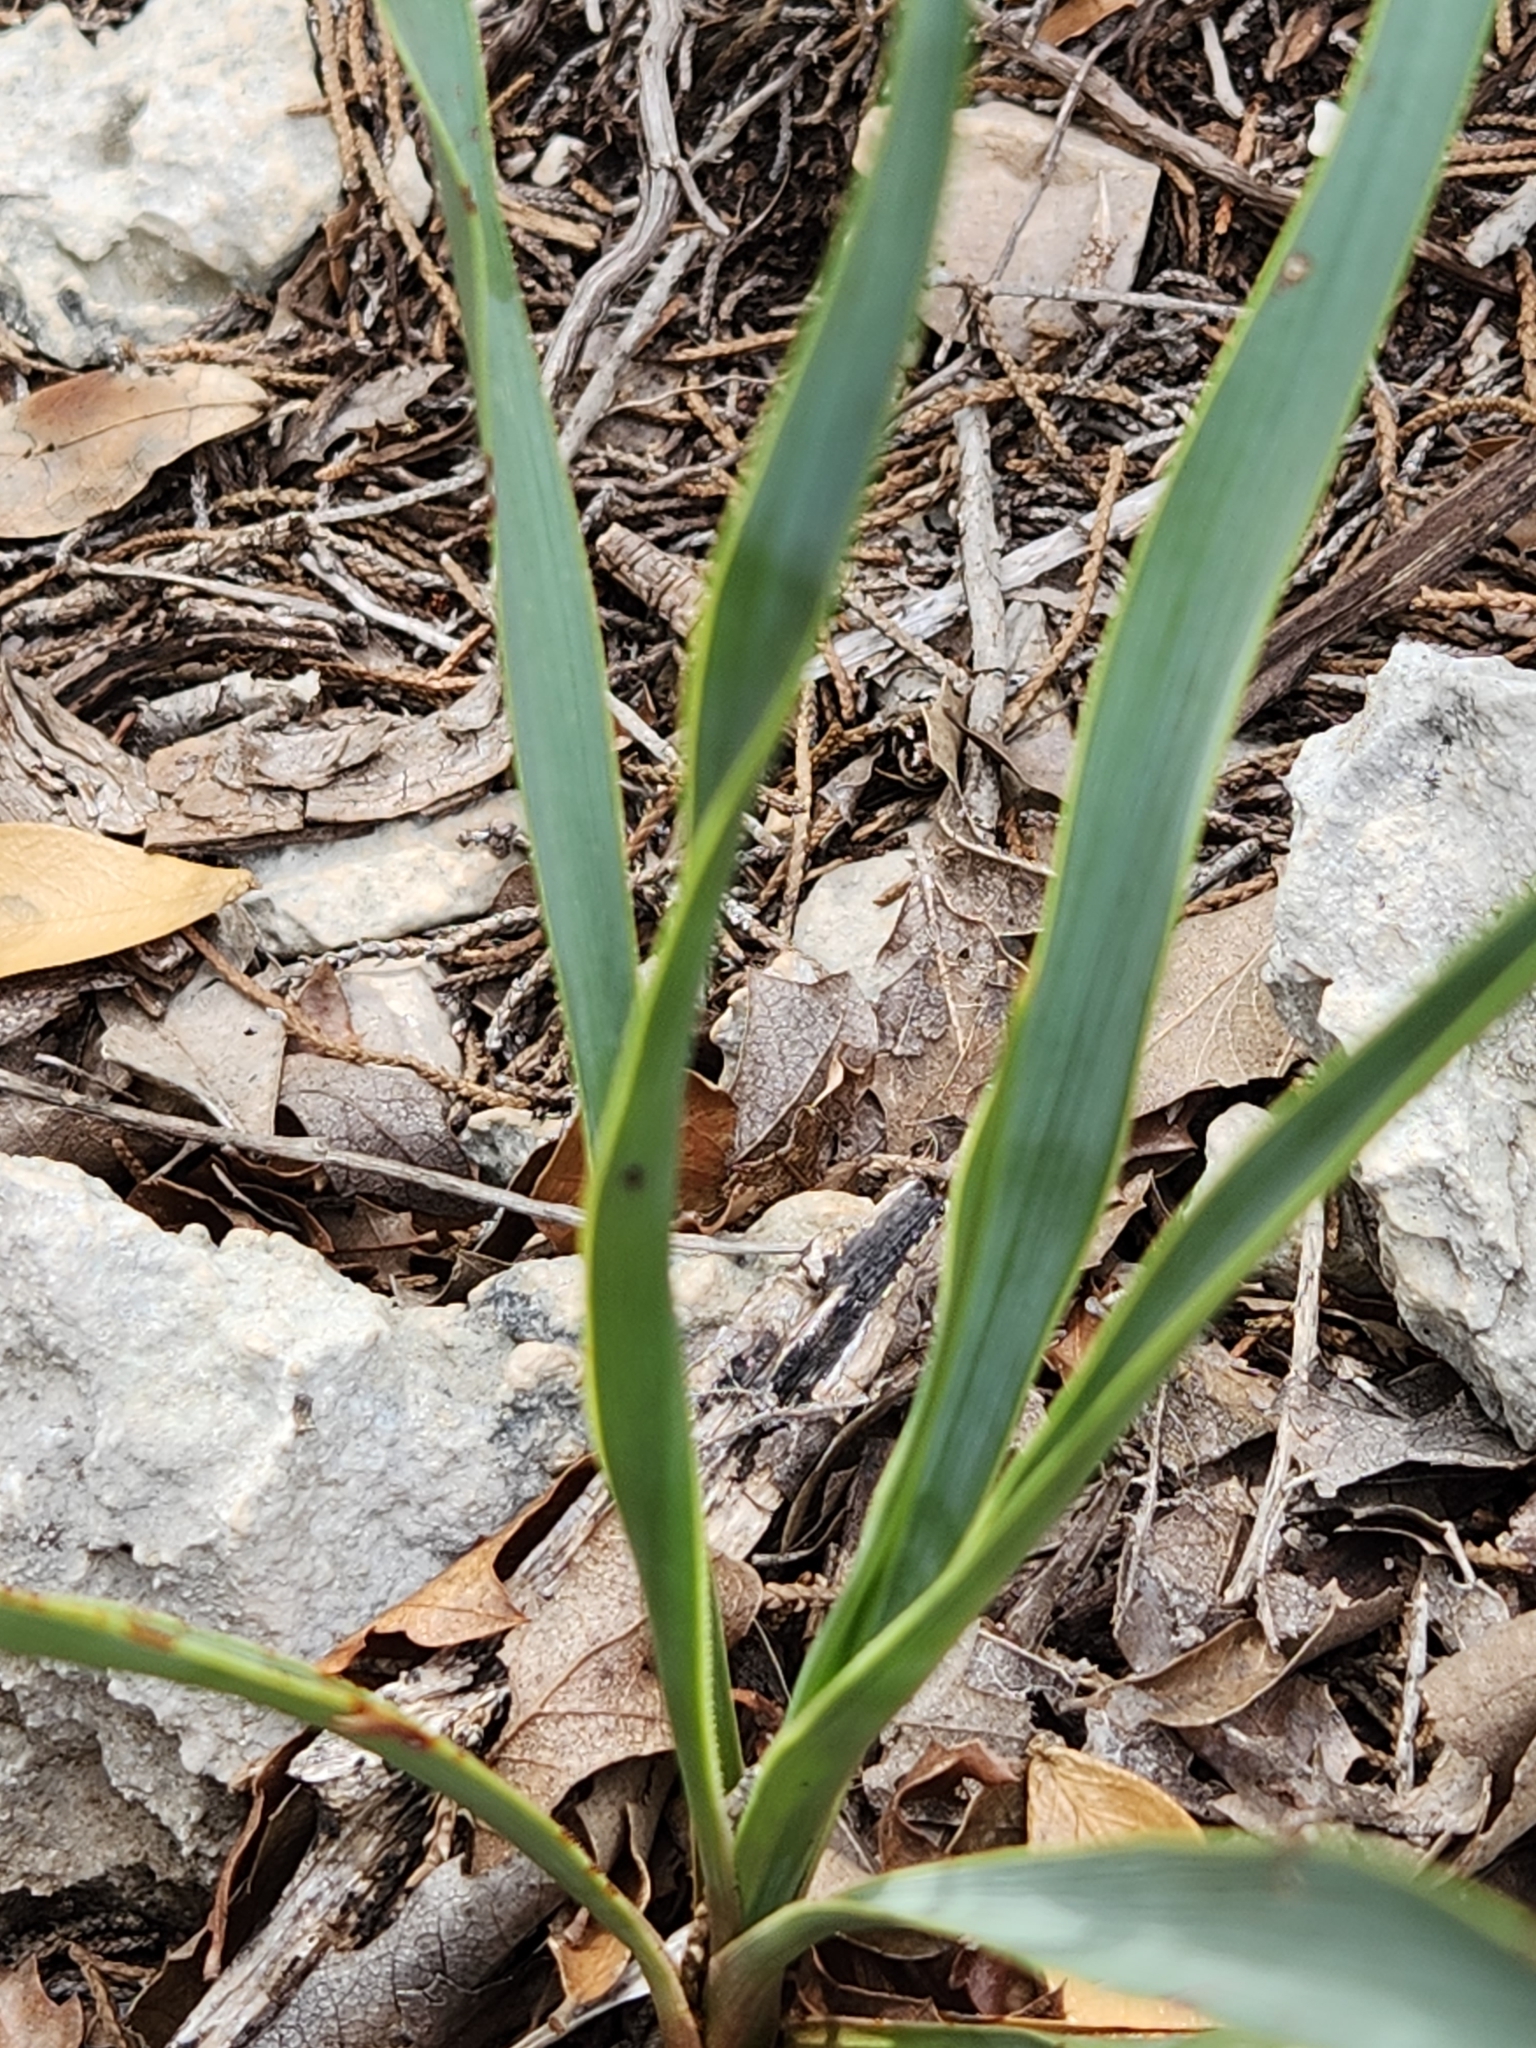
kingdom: Plantae
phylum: Tracheophyta
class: Liliopsida
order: Asparagales
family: Asparagaceae
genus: Yucca
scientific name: Yucca rupicola
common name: Twisted-leaf spanish-dagger
